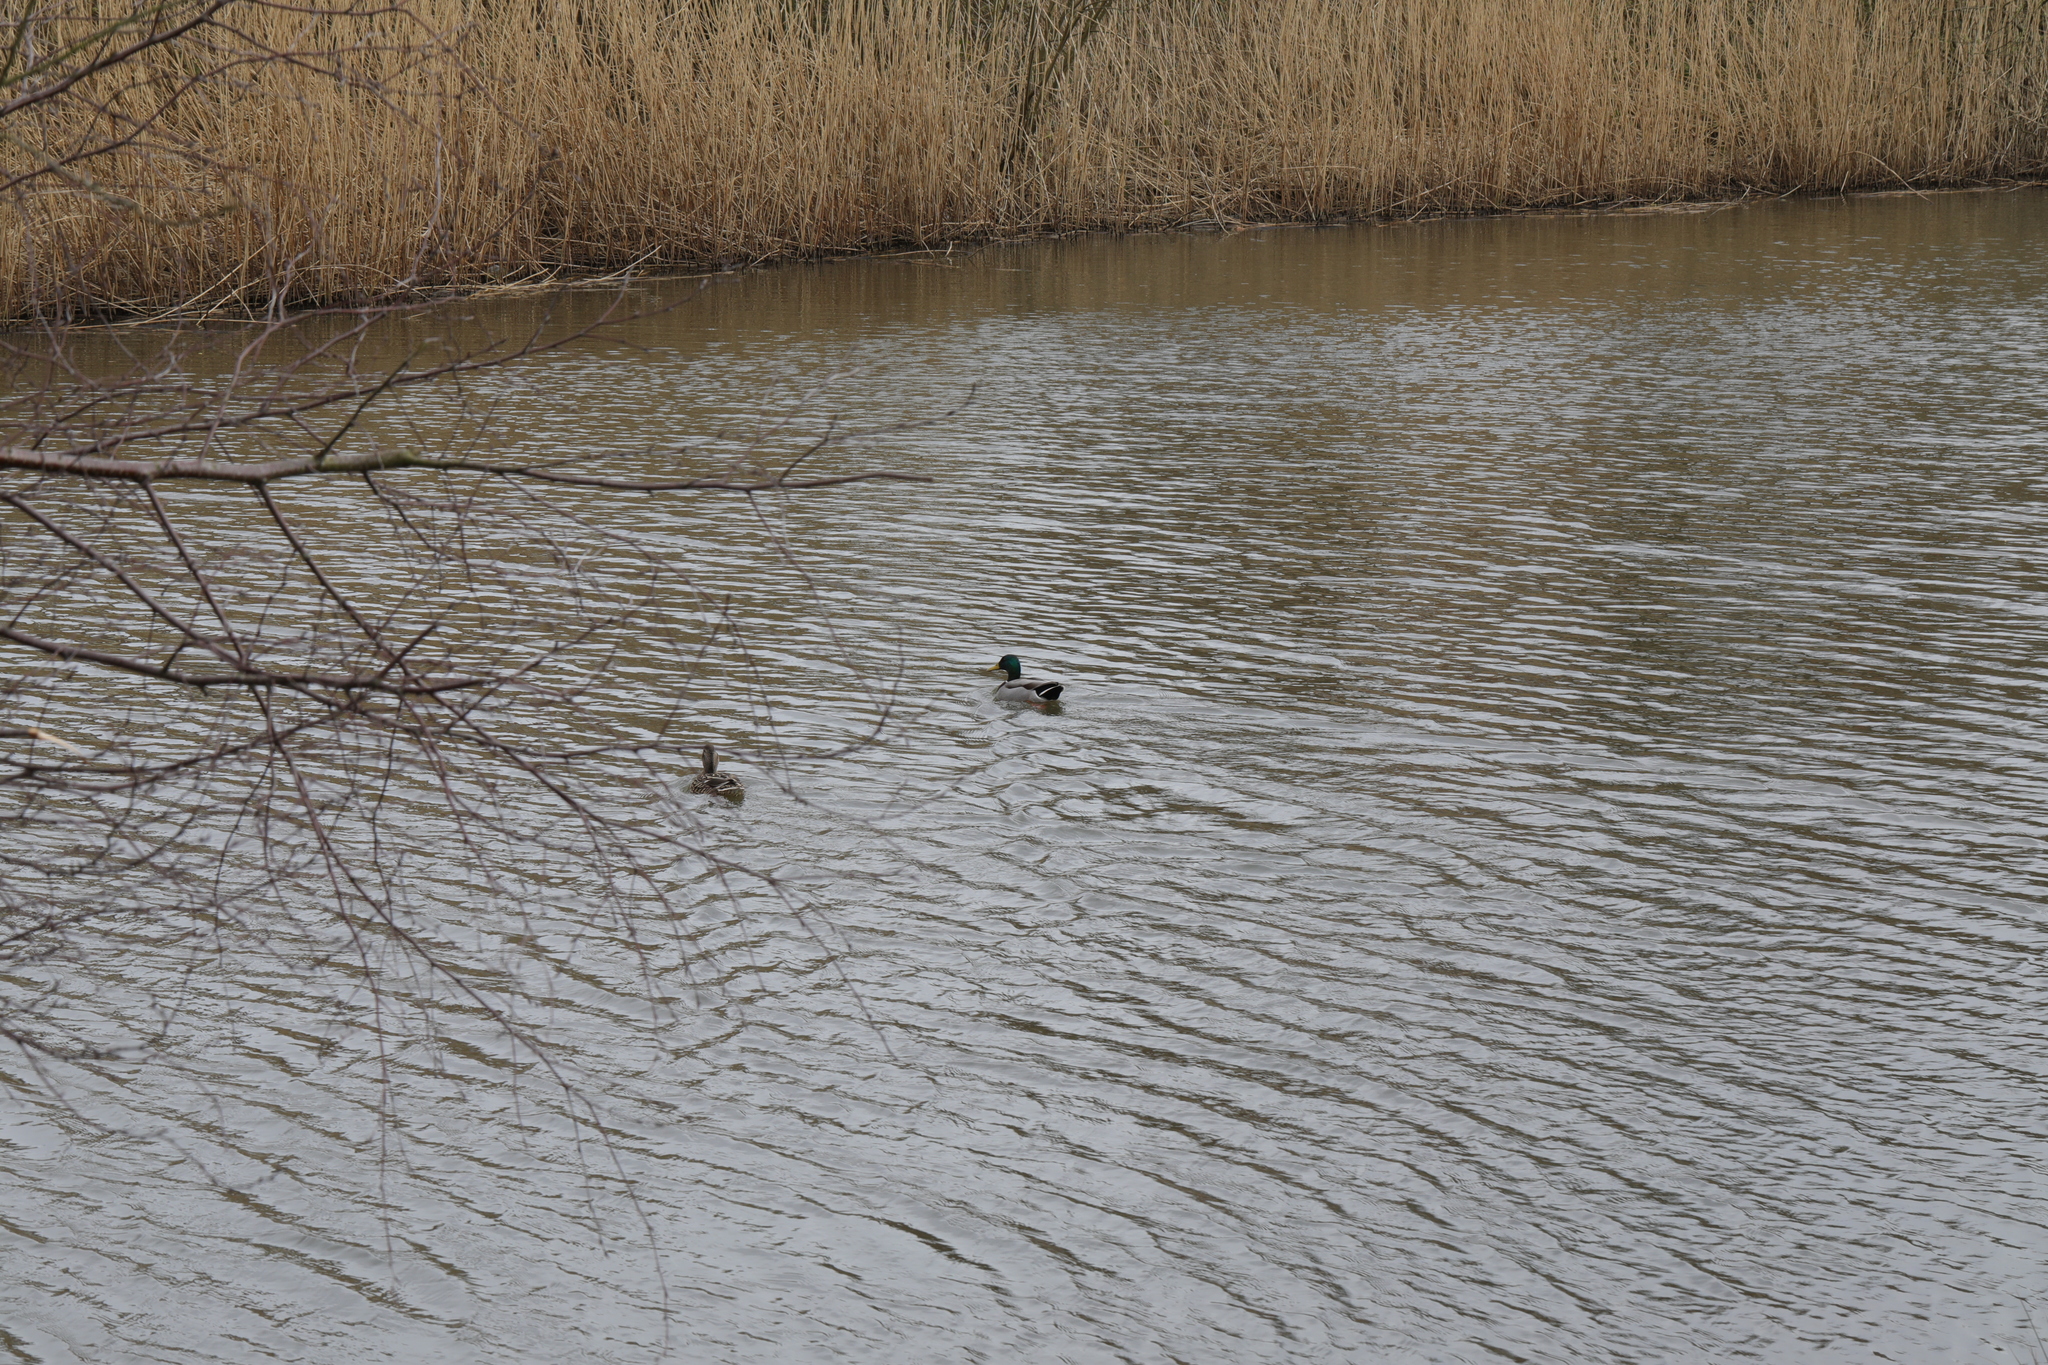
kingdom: Animalia
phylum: Chordata
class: Aves
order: Anseriformes
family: Anatidae
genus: Anas
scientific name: Anas platyrhynchos
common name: Mallard
